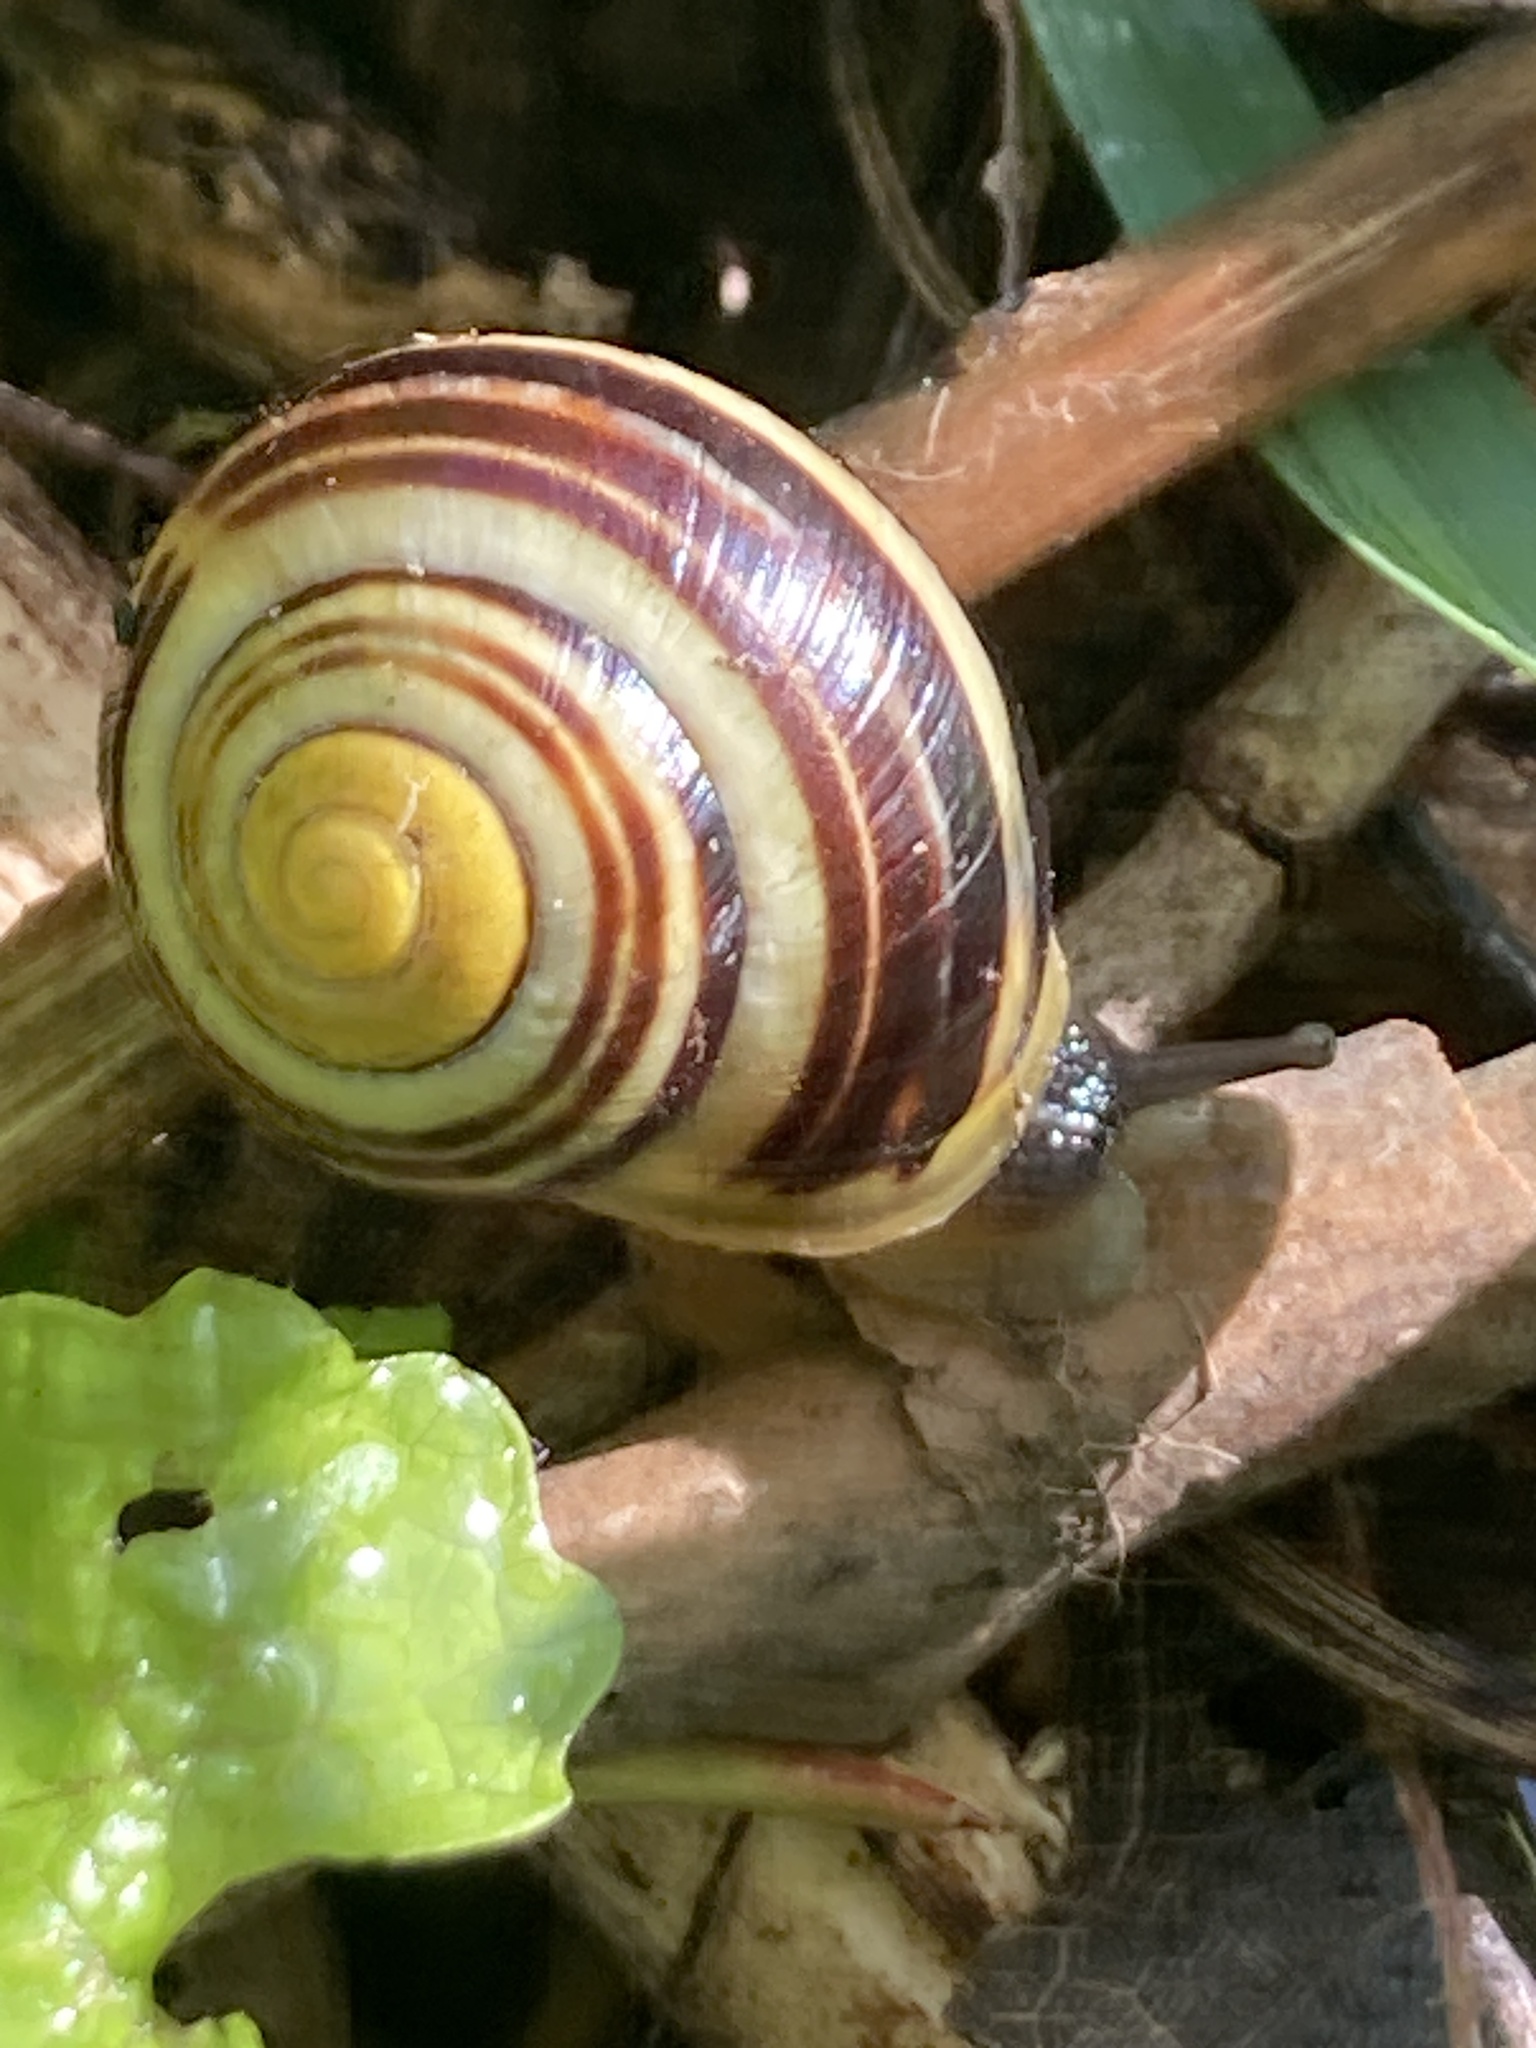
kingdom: Animalia
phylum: Mollusca
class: Gastropoda
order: Stylommatophora
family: Helicidae
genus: Cepaea
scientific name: Cepaea hortensis
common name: White-lip gardensnail
